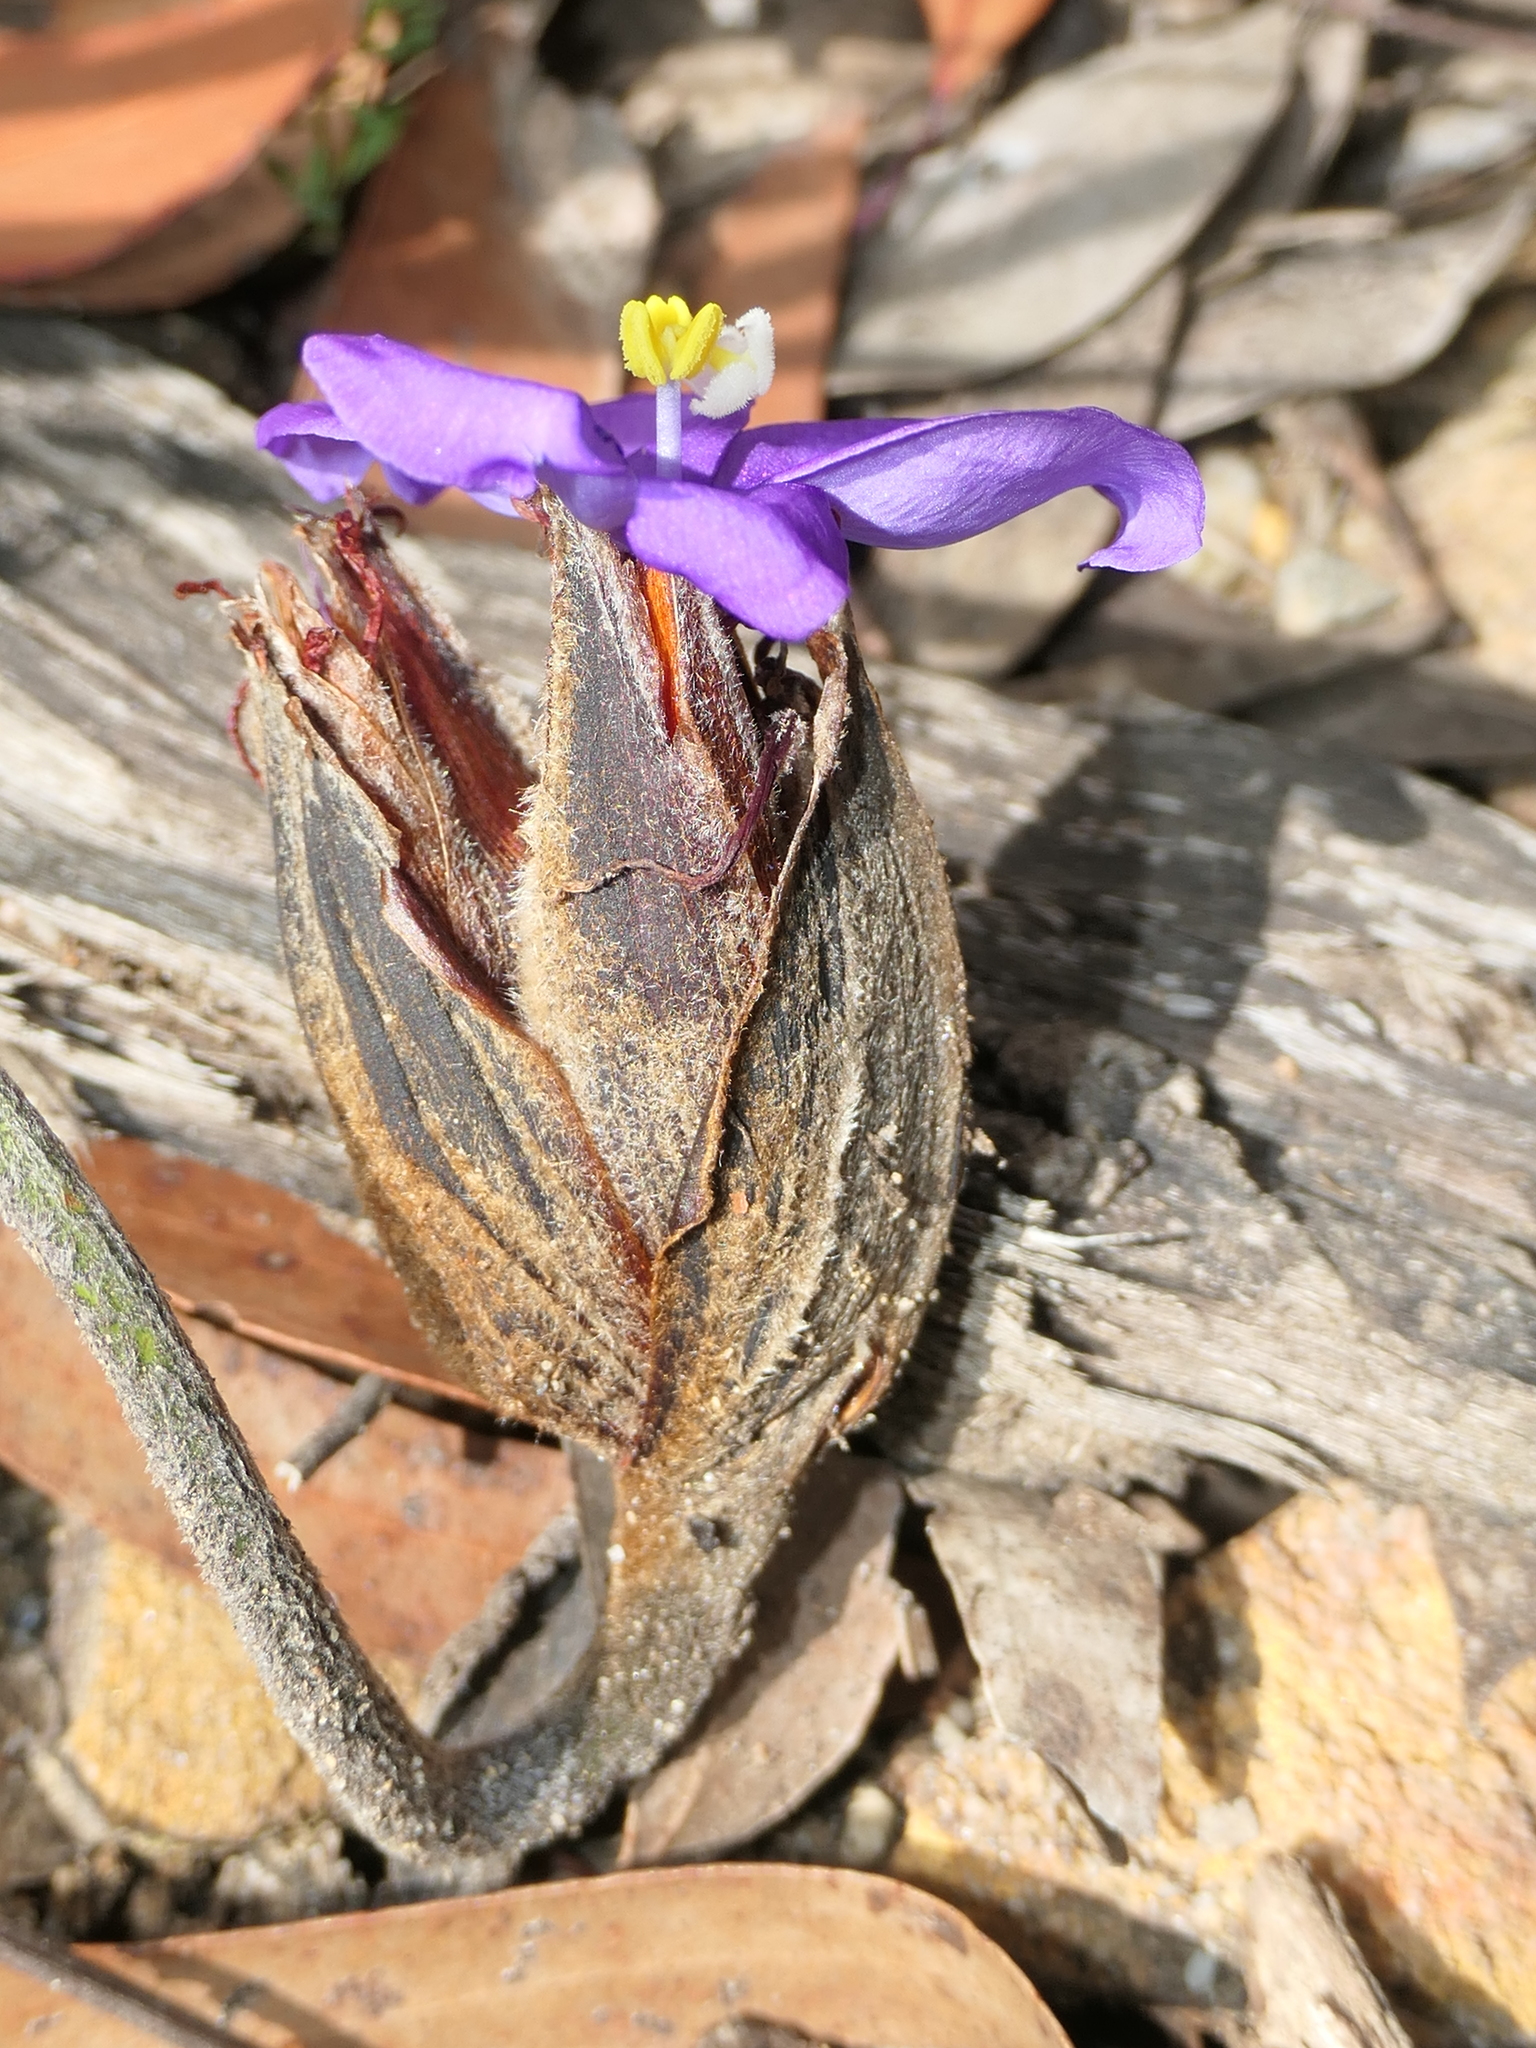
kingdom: Plantae
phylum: Tracheophyta
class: Liliopsida
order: Asparagales
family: Iridaceae
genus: Patersonia
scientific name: Patersonia sericea
